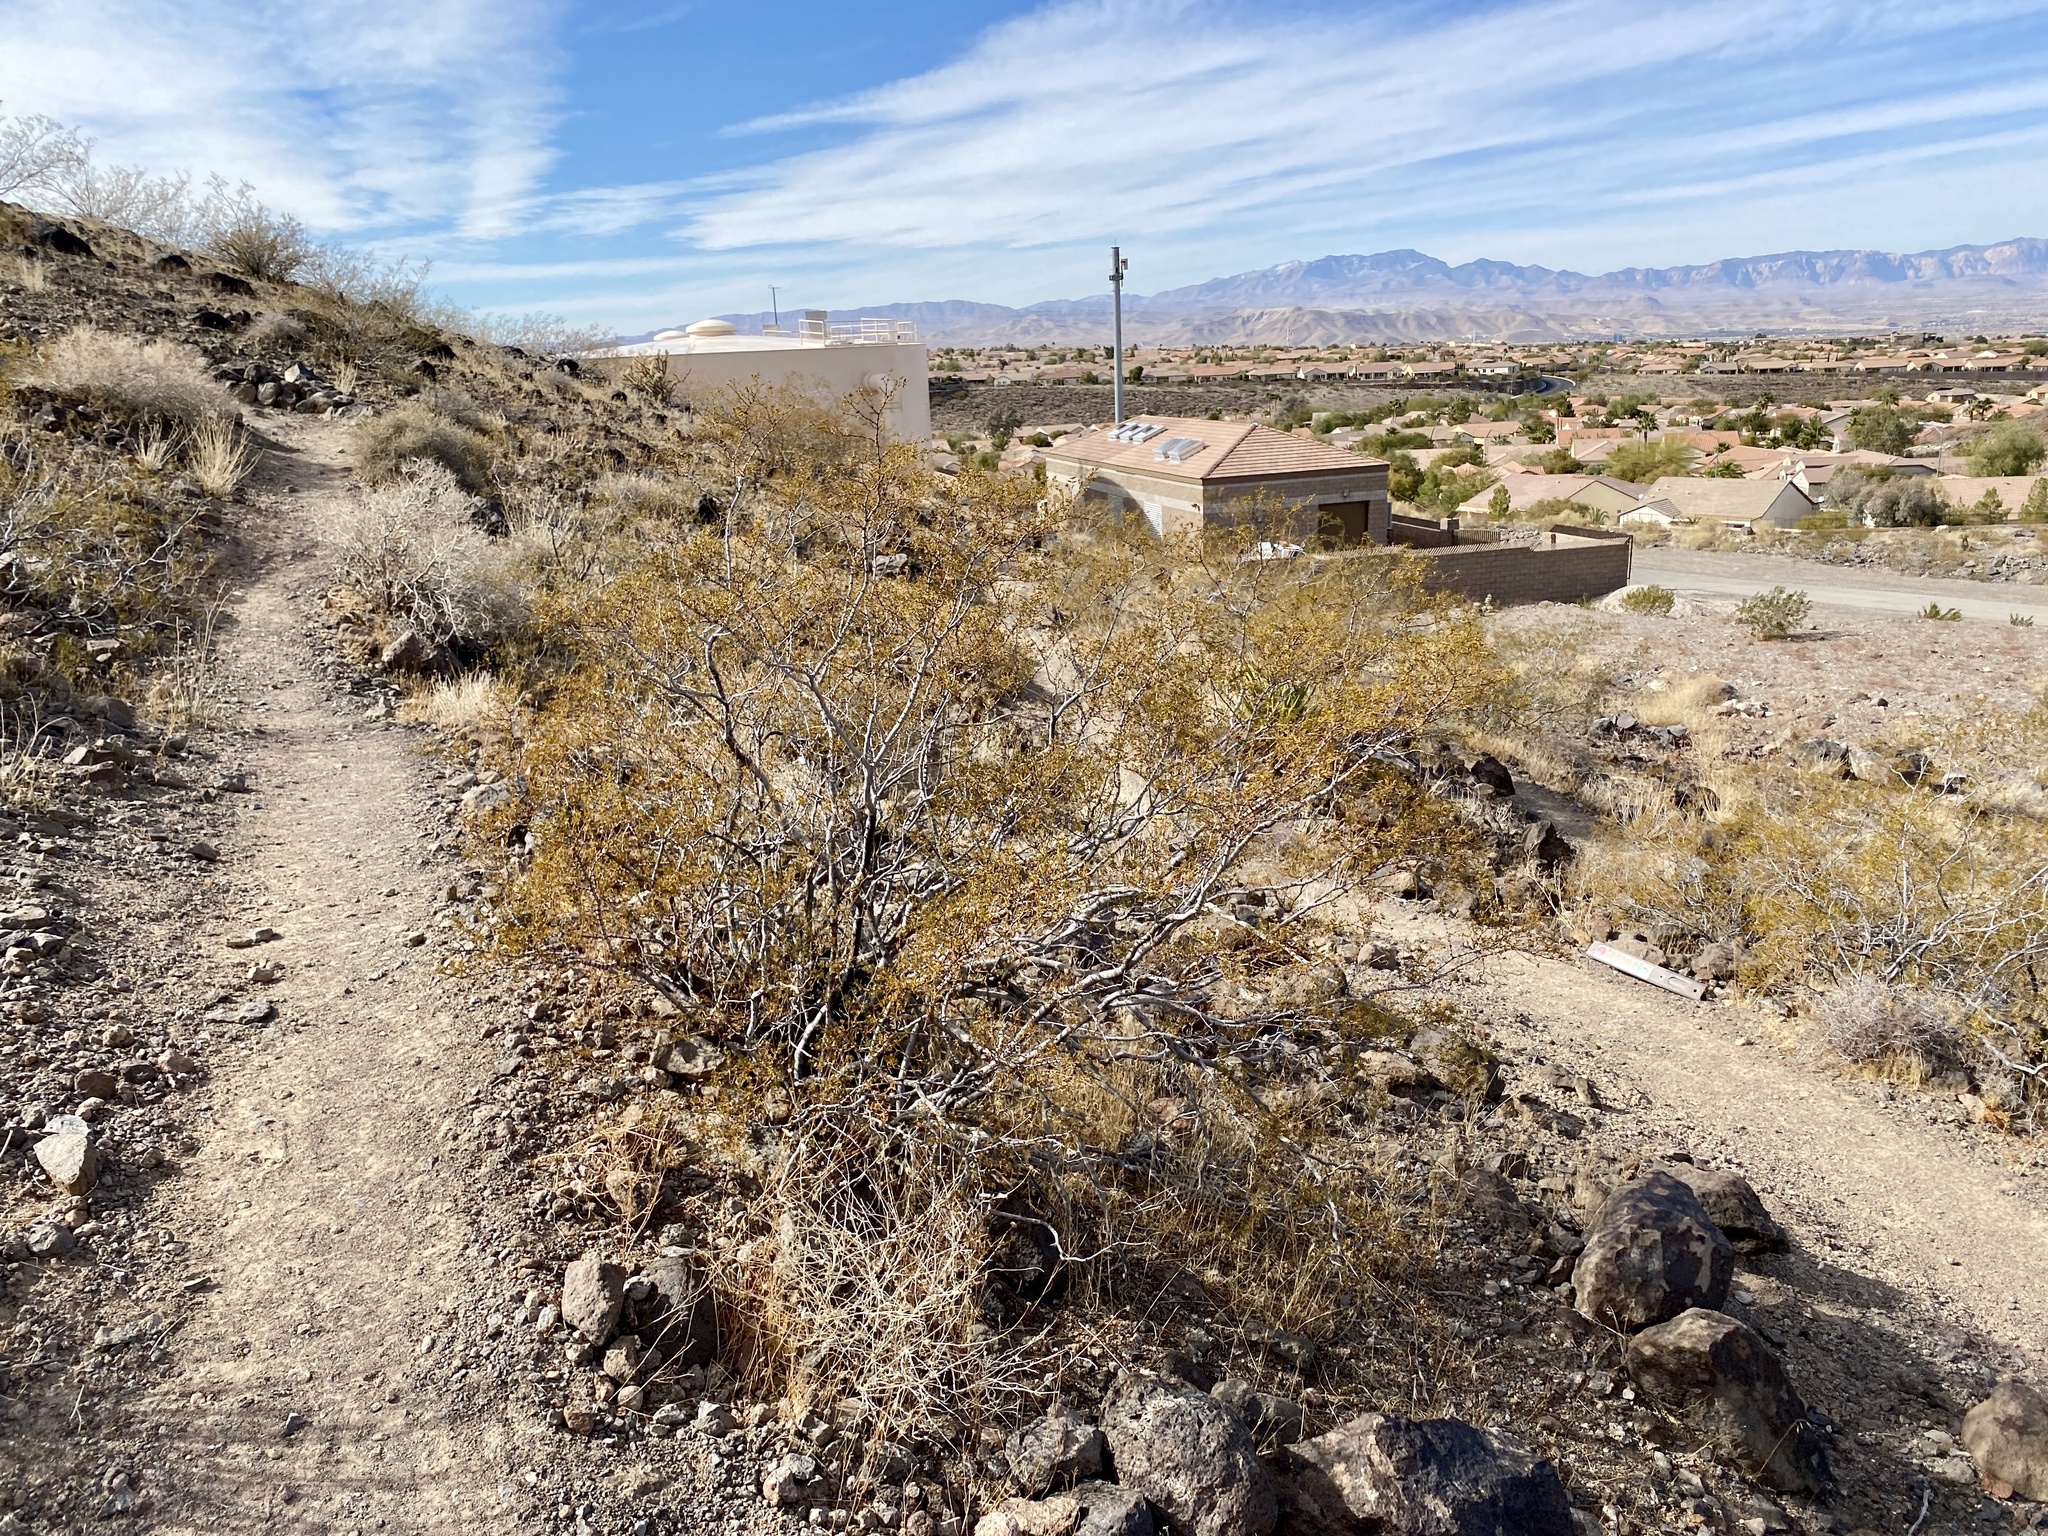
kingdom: Plantae
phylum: Tracheophyta
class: Magnoliopsida
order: Zygophyllales
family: Zygophyllaceae
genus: Larrea
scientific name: Larrea tridentata
